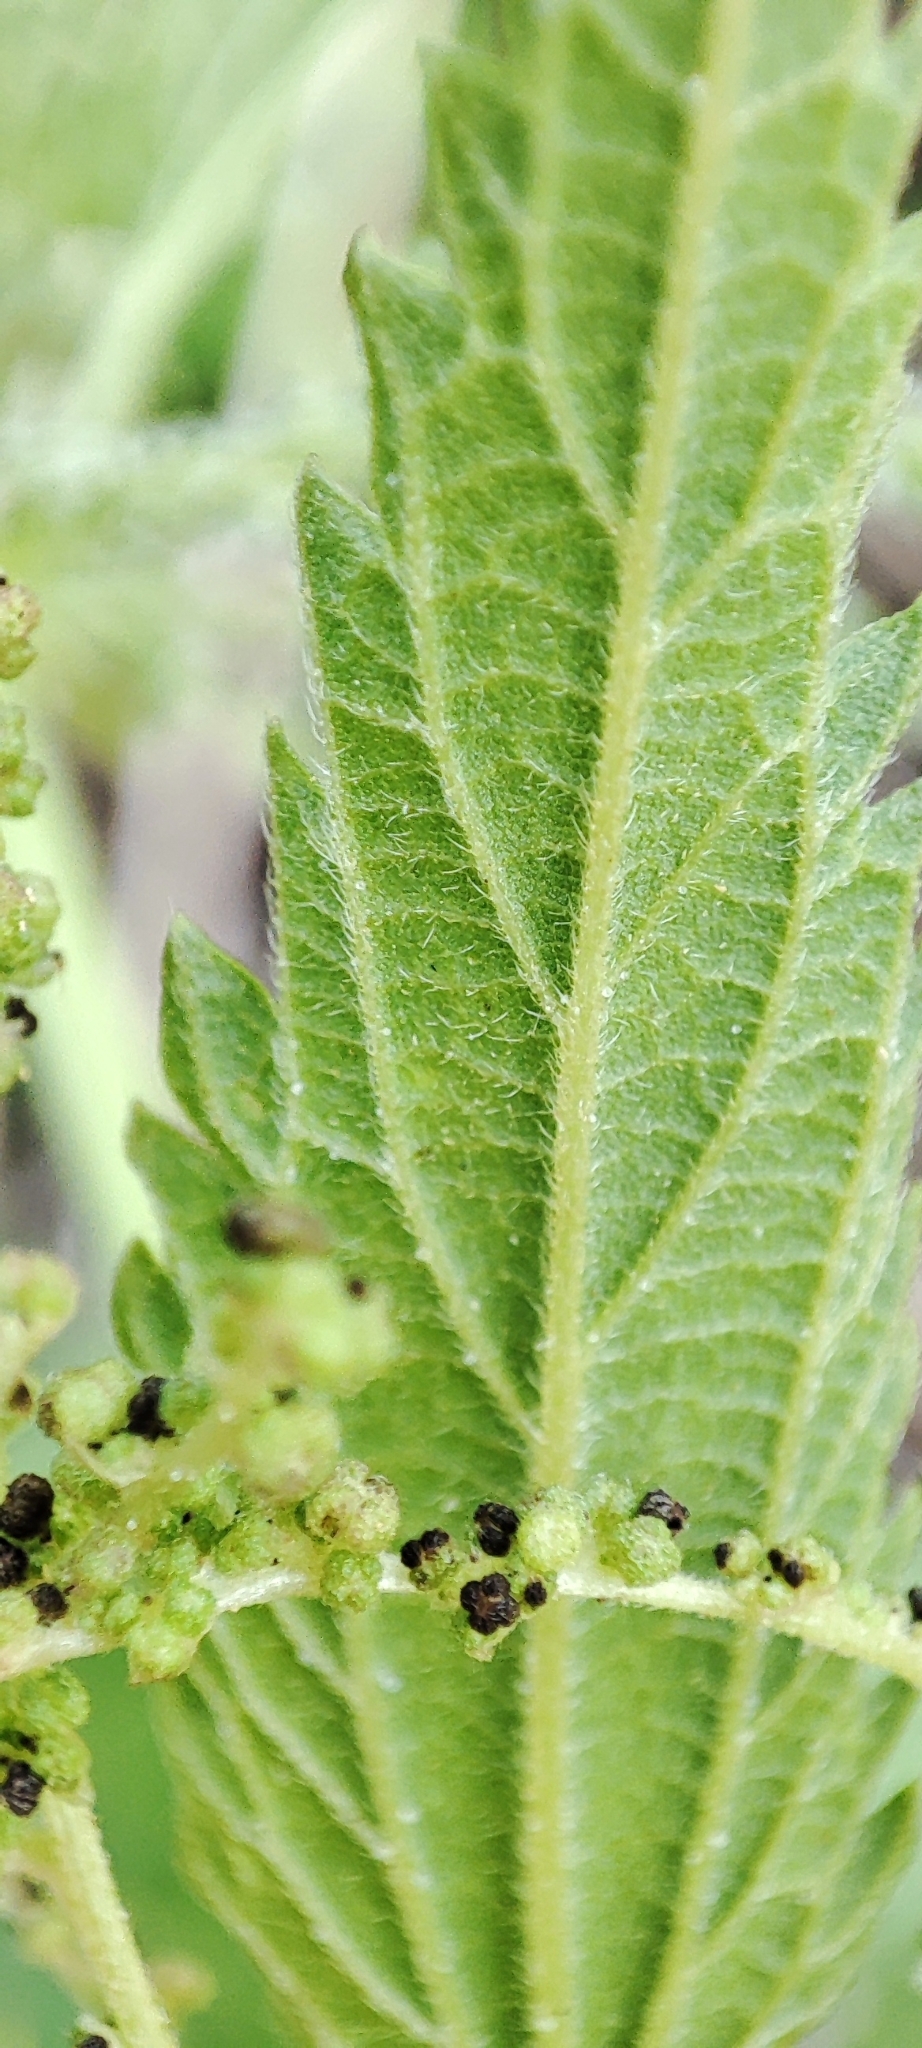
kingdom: Plantae
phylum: Tracheophyta
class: Magnoliopsida
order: Rosales
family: Urticaceae
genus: Urtica
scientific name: Urtica galeopsifolia
